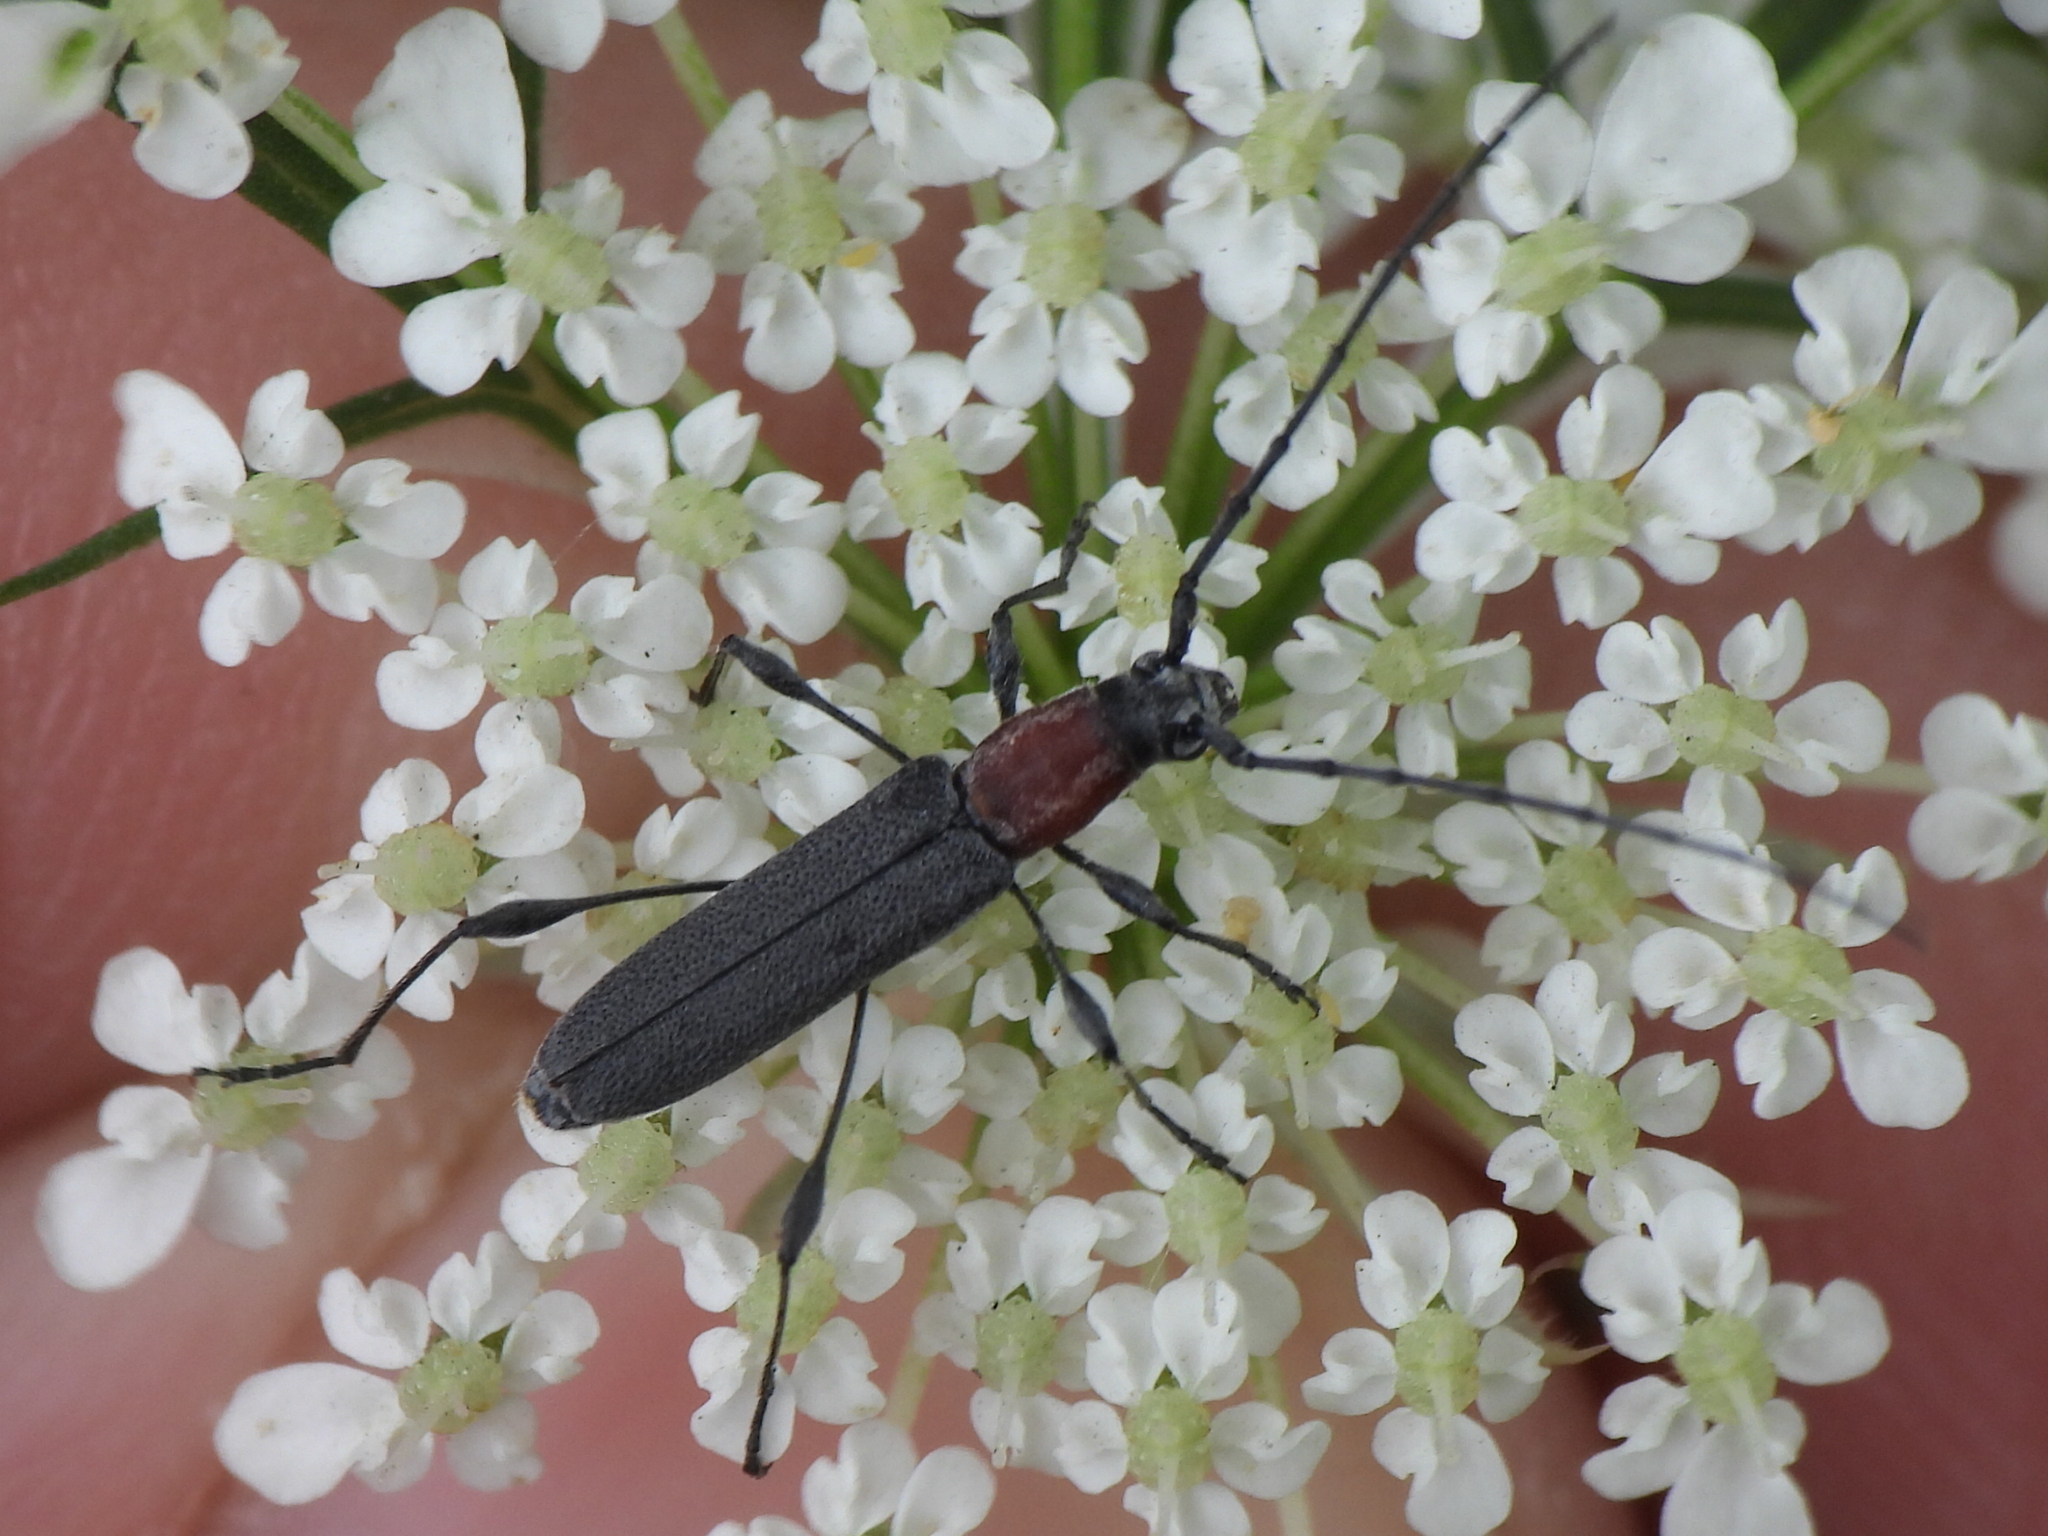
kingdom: Animalia
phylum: Arthropoda
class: Insecta
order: Coleoptera
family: Cerambycidae
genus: Rhopalophora
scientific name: Rhopalophora longipes
